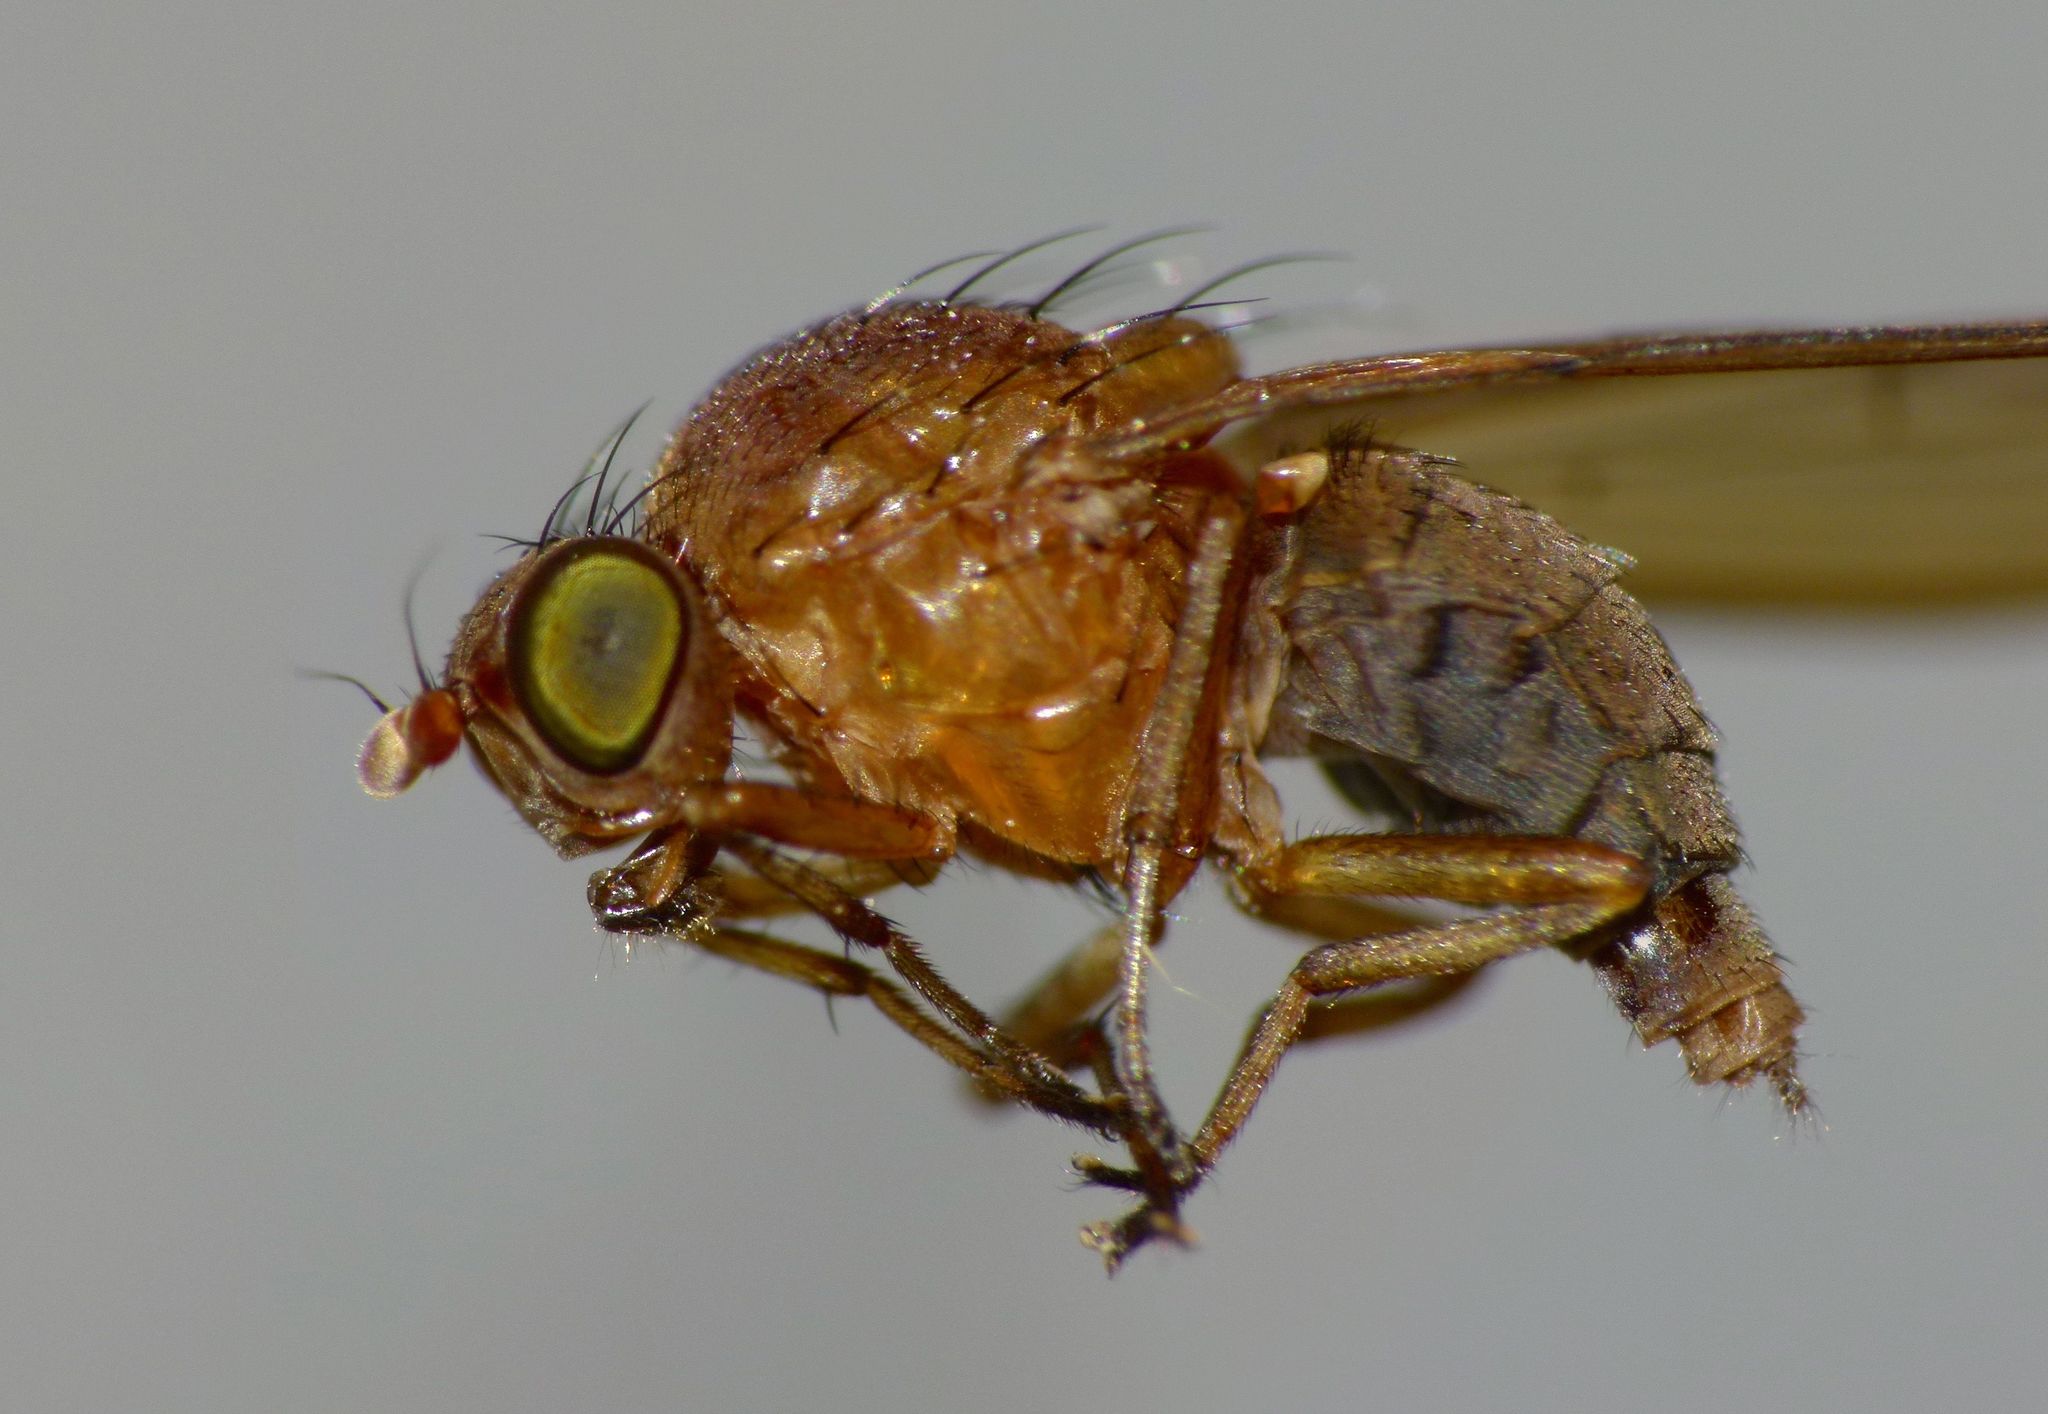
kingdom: Animalia
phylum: Arthropoda
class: Insecta
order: Diptera
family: Lauxaniidae
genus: Sapromyza
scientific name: Sapromyza simillima
